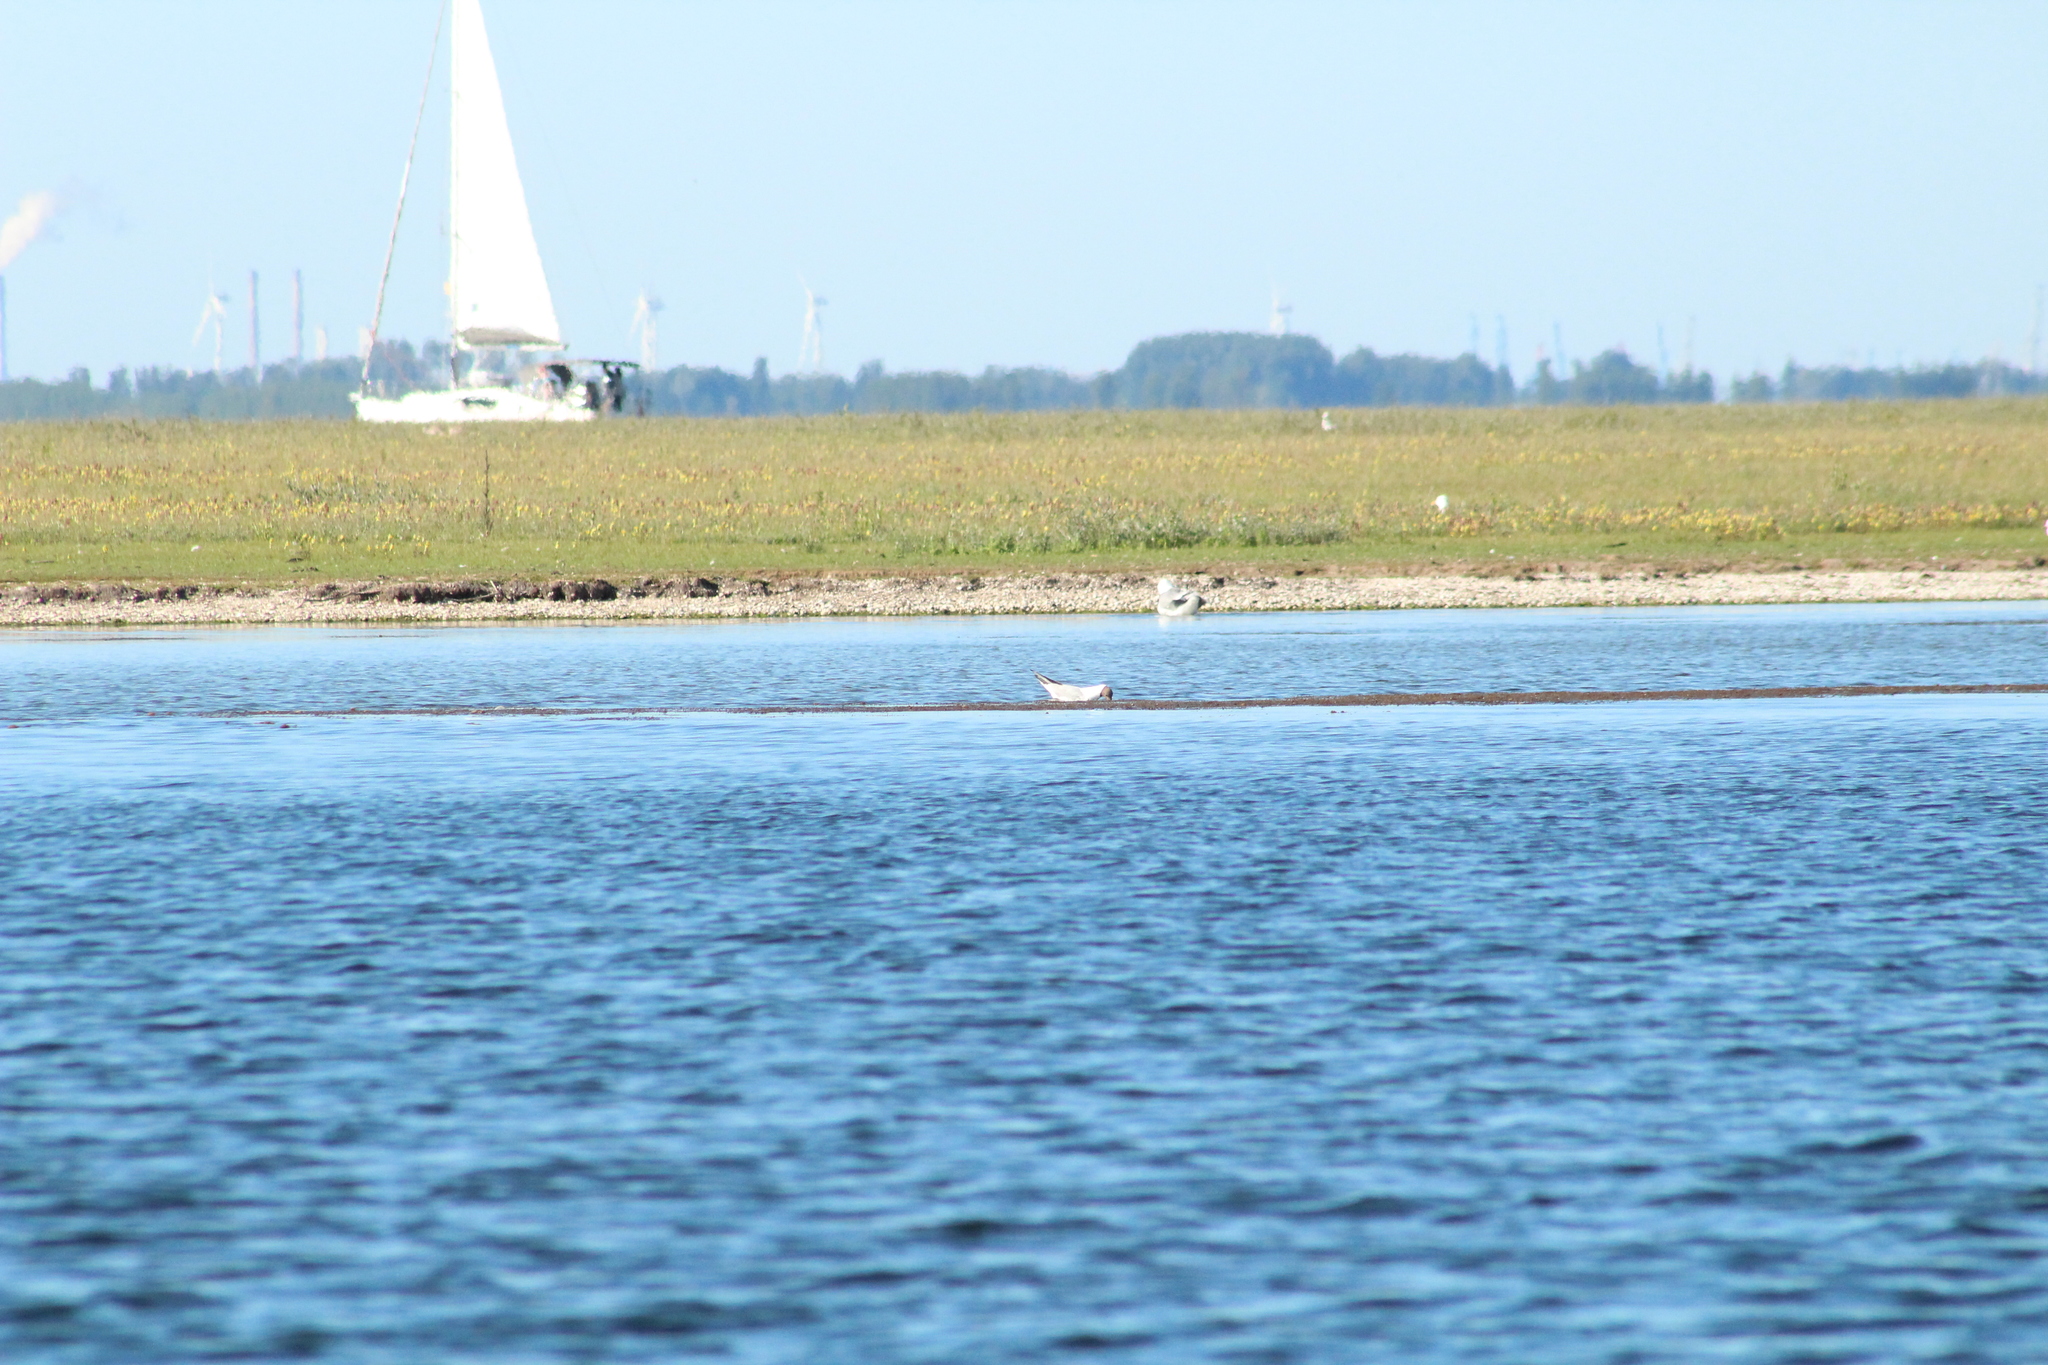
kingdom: Animalia
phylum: Chordata
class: Aves
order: Charadriiformes
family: Laridae
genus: Chroicocephalus
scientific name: Chroicocephalus ridibundus
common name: Black-headed gull
